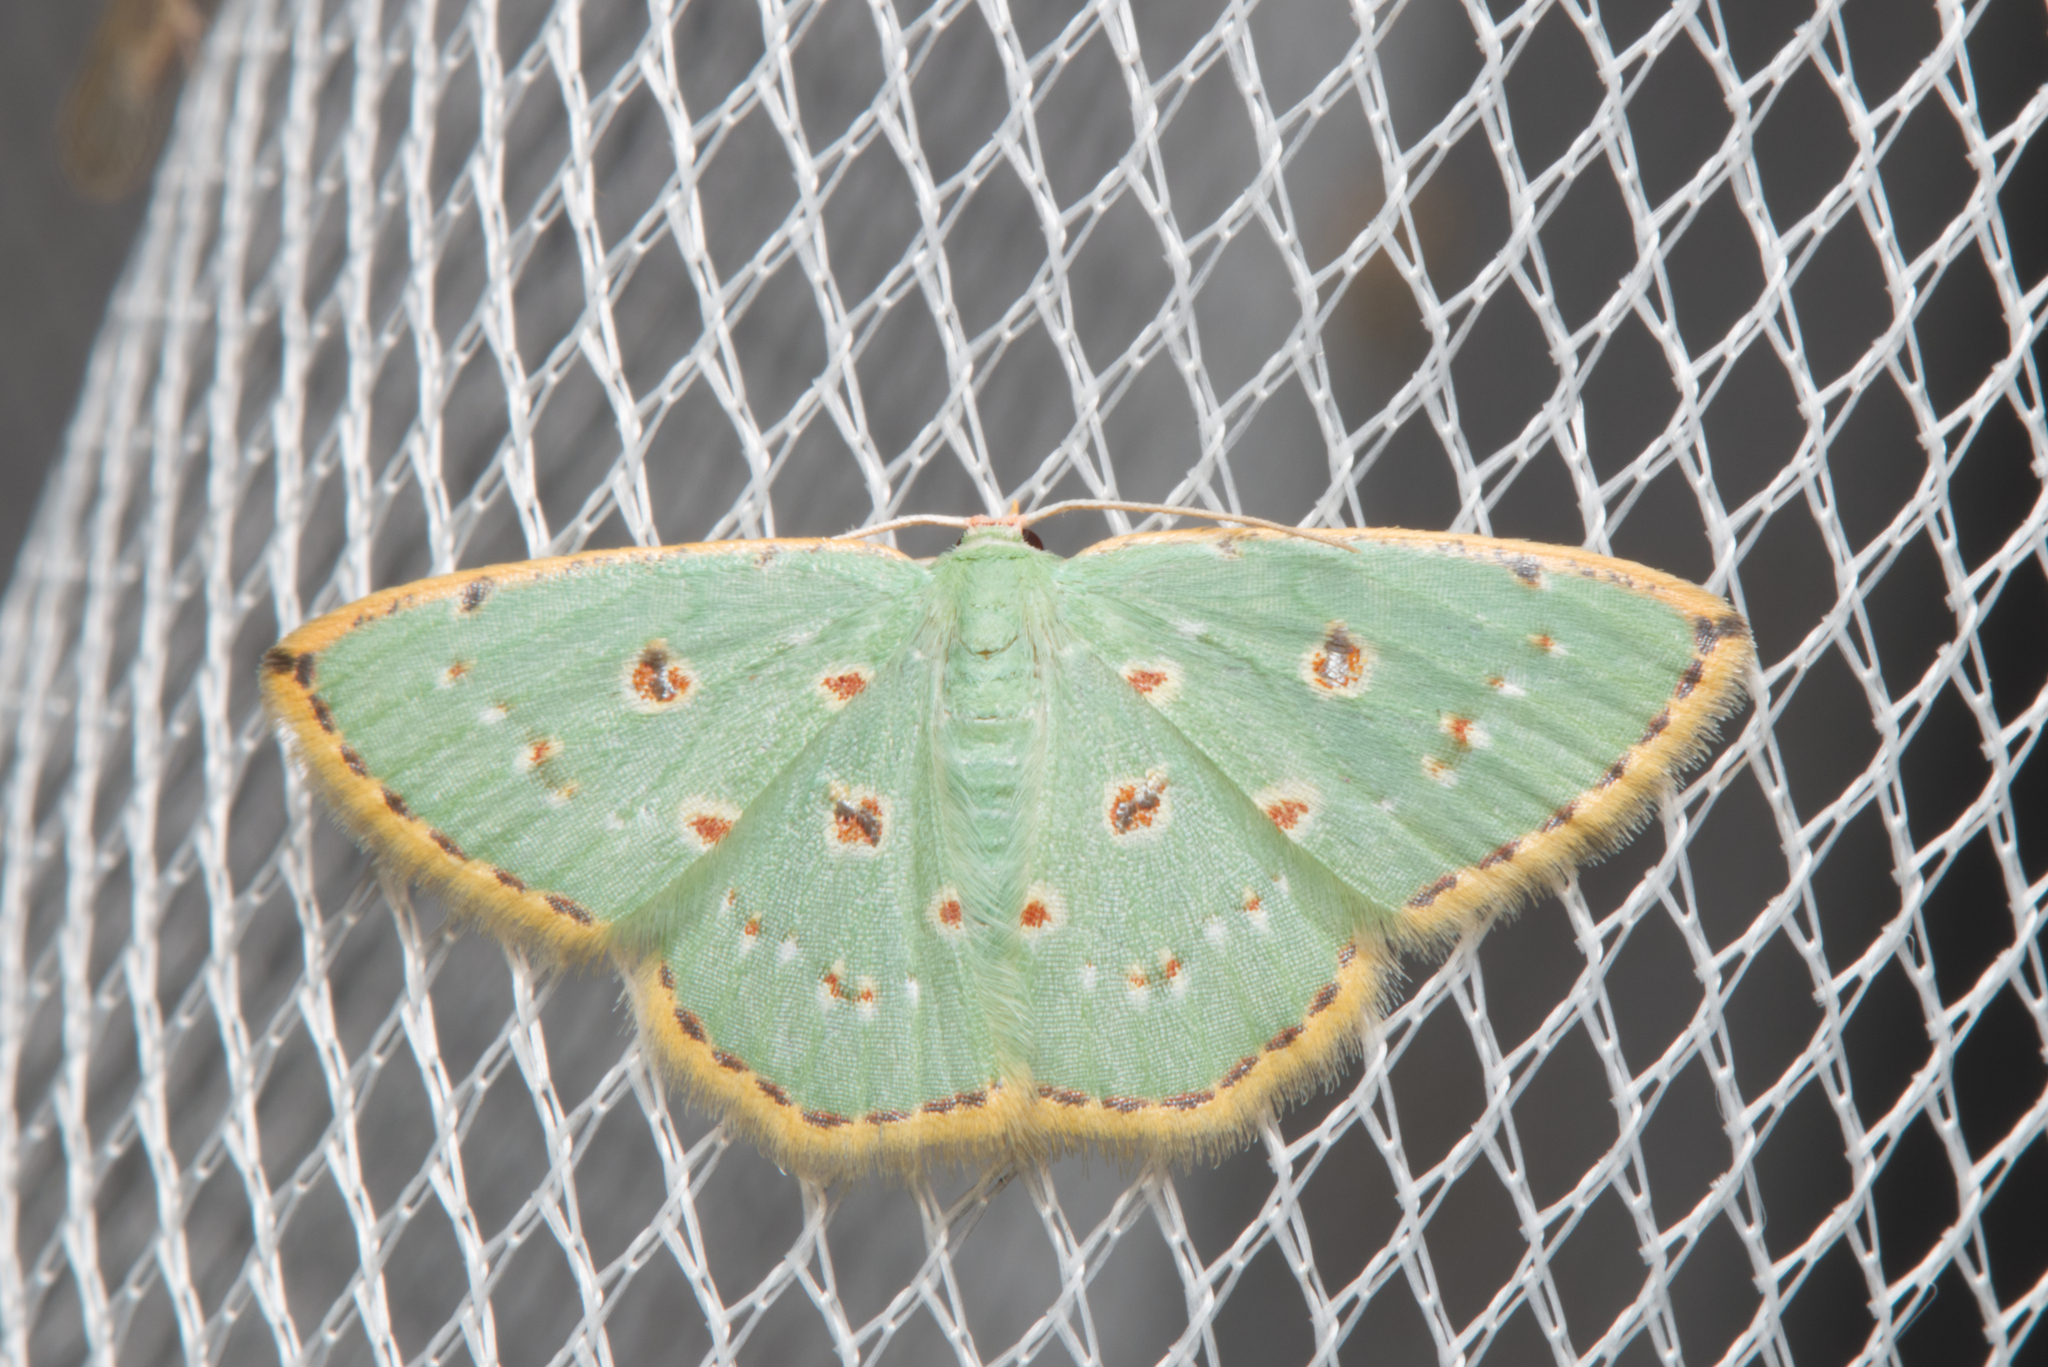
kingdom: Animalia
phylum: Arthropoda
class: Insecta
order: Lepidoptera
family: Geometridae
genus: Comostola
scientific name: Comostola laesaria
